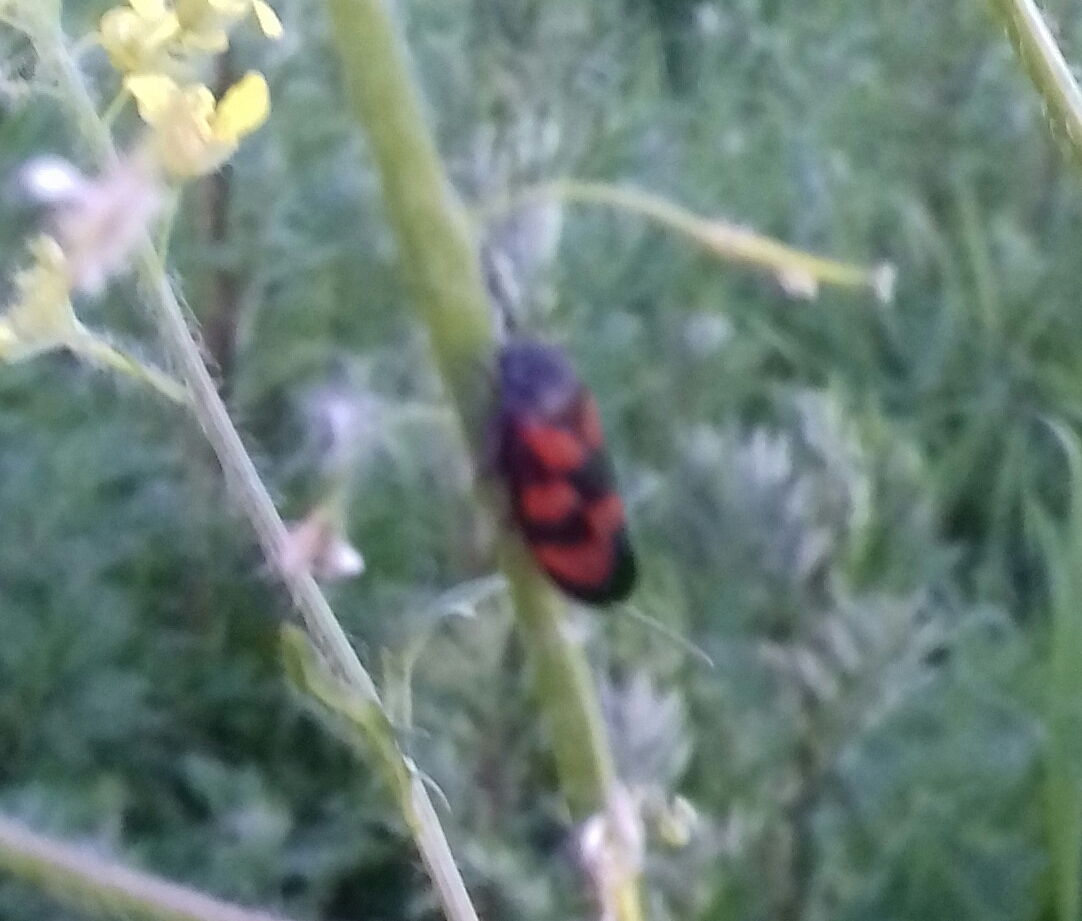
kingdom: Animalia
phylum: Arthropoda
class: Insecta
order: Hemiptera
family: Cercopidae
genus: Cercopis
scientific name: Cercopis vulnerata
